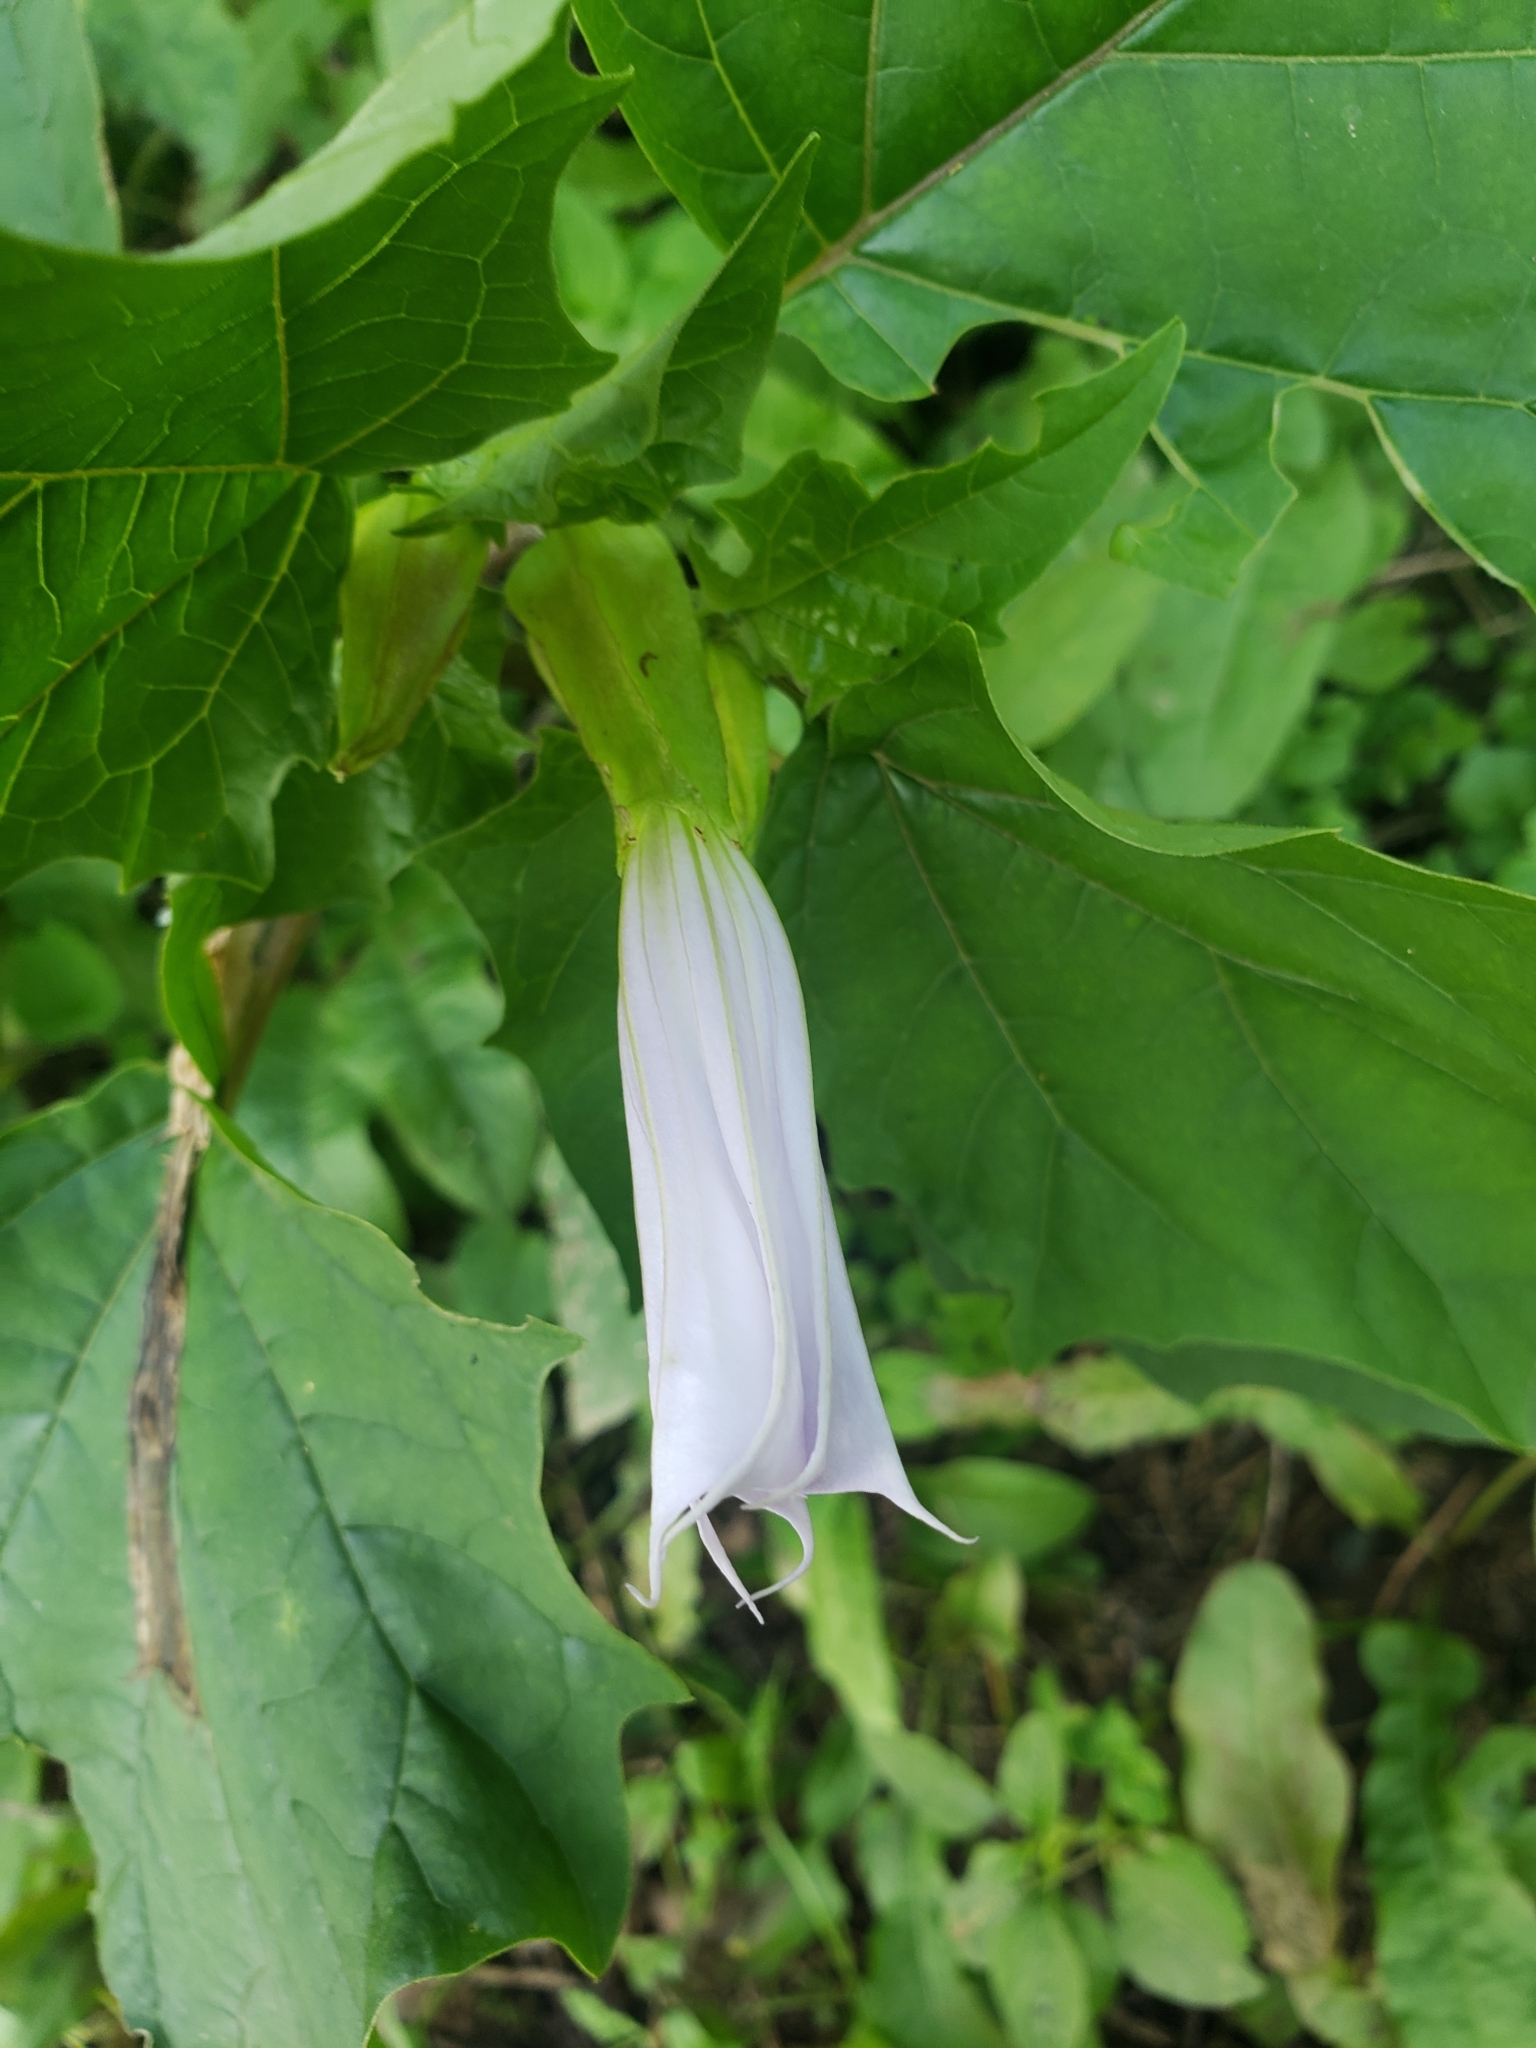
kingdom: Plantae
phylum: Tracheophyta
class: Magnoliopsida
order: Solanales
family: Solanaceae
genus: Datura
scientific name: Datura stramonium
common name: Thorn-apple
